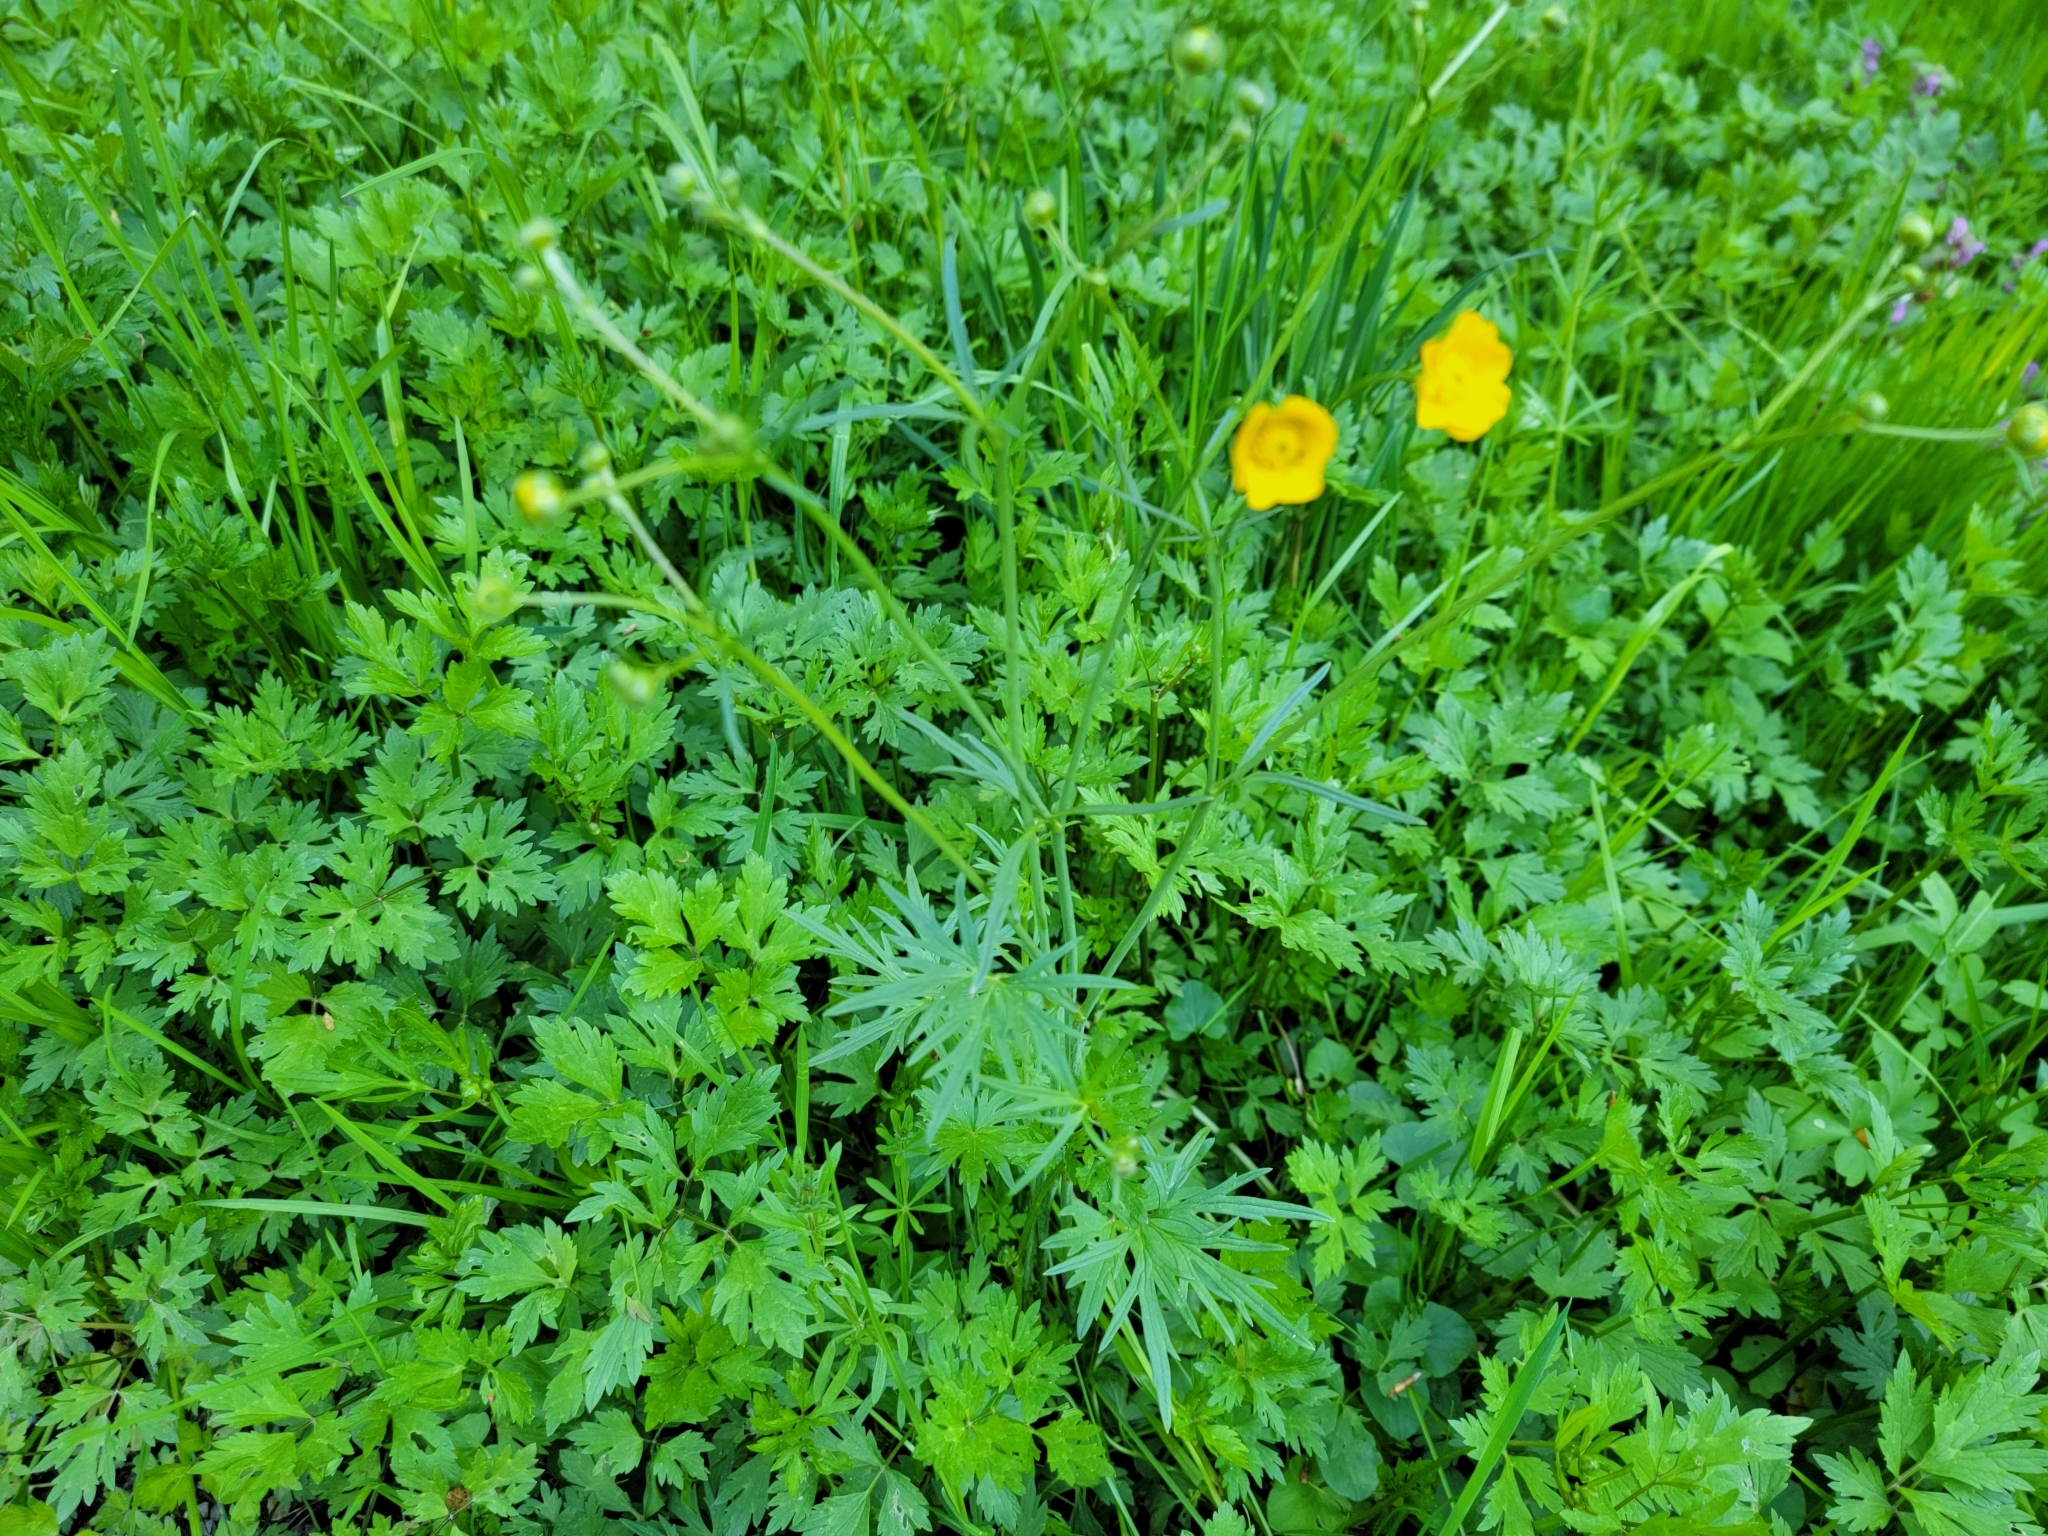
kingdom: Plantae
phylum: Tracheophyta
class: Magnoliopsida
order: Ranunculales
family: Ranunculaceae
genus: Ranunculus
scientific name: Ranunculus acris
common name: Meadow buttercup
